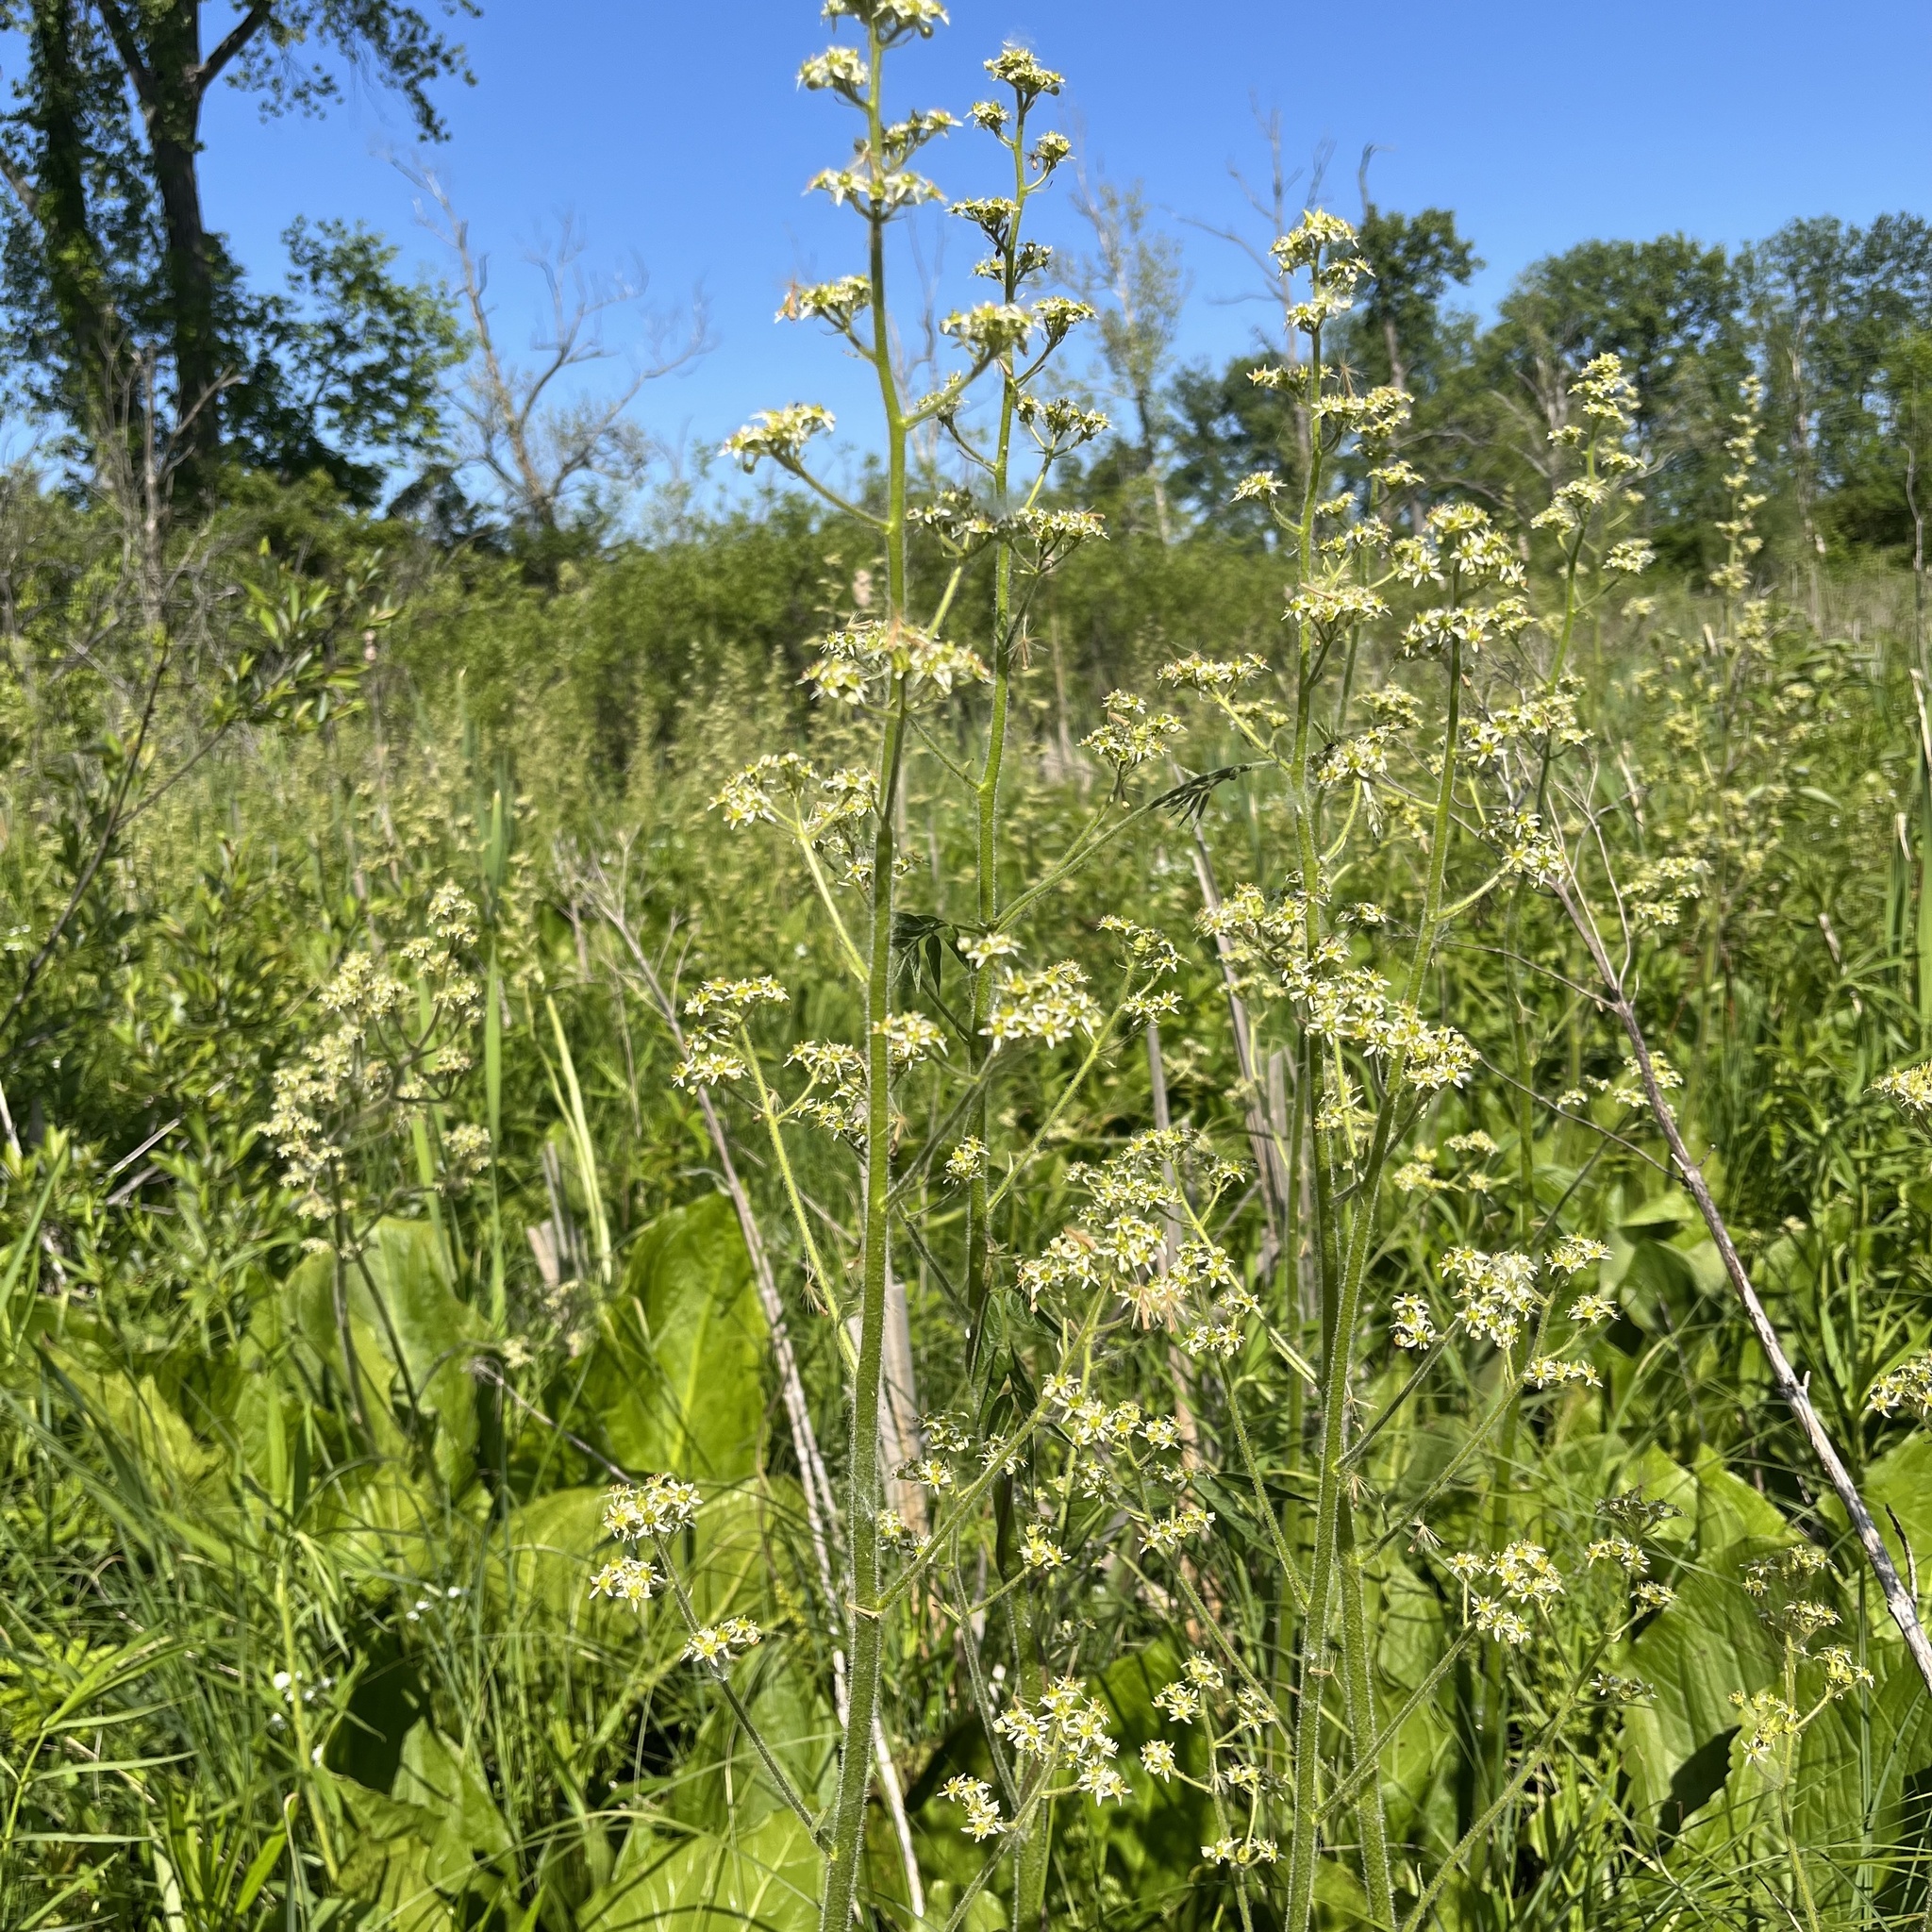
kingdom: Plantae
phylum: Tracheophyta
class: Magnoliopsida
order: Saxifragales
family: Saxifragaceae
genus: Micranthes
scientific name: Micranthes pensylvanica
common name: Marsh saxifrage
